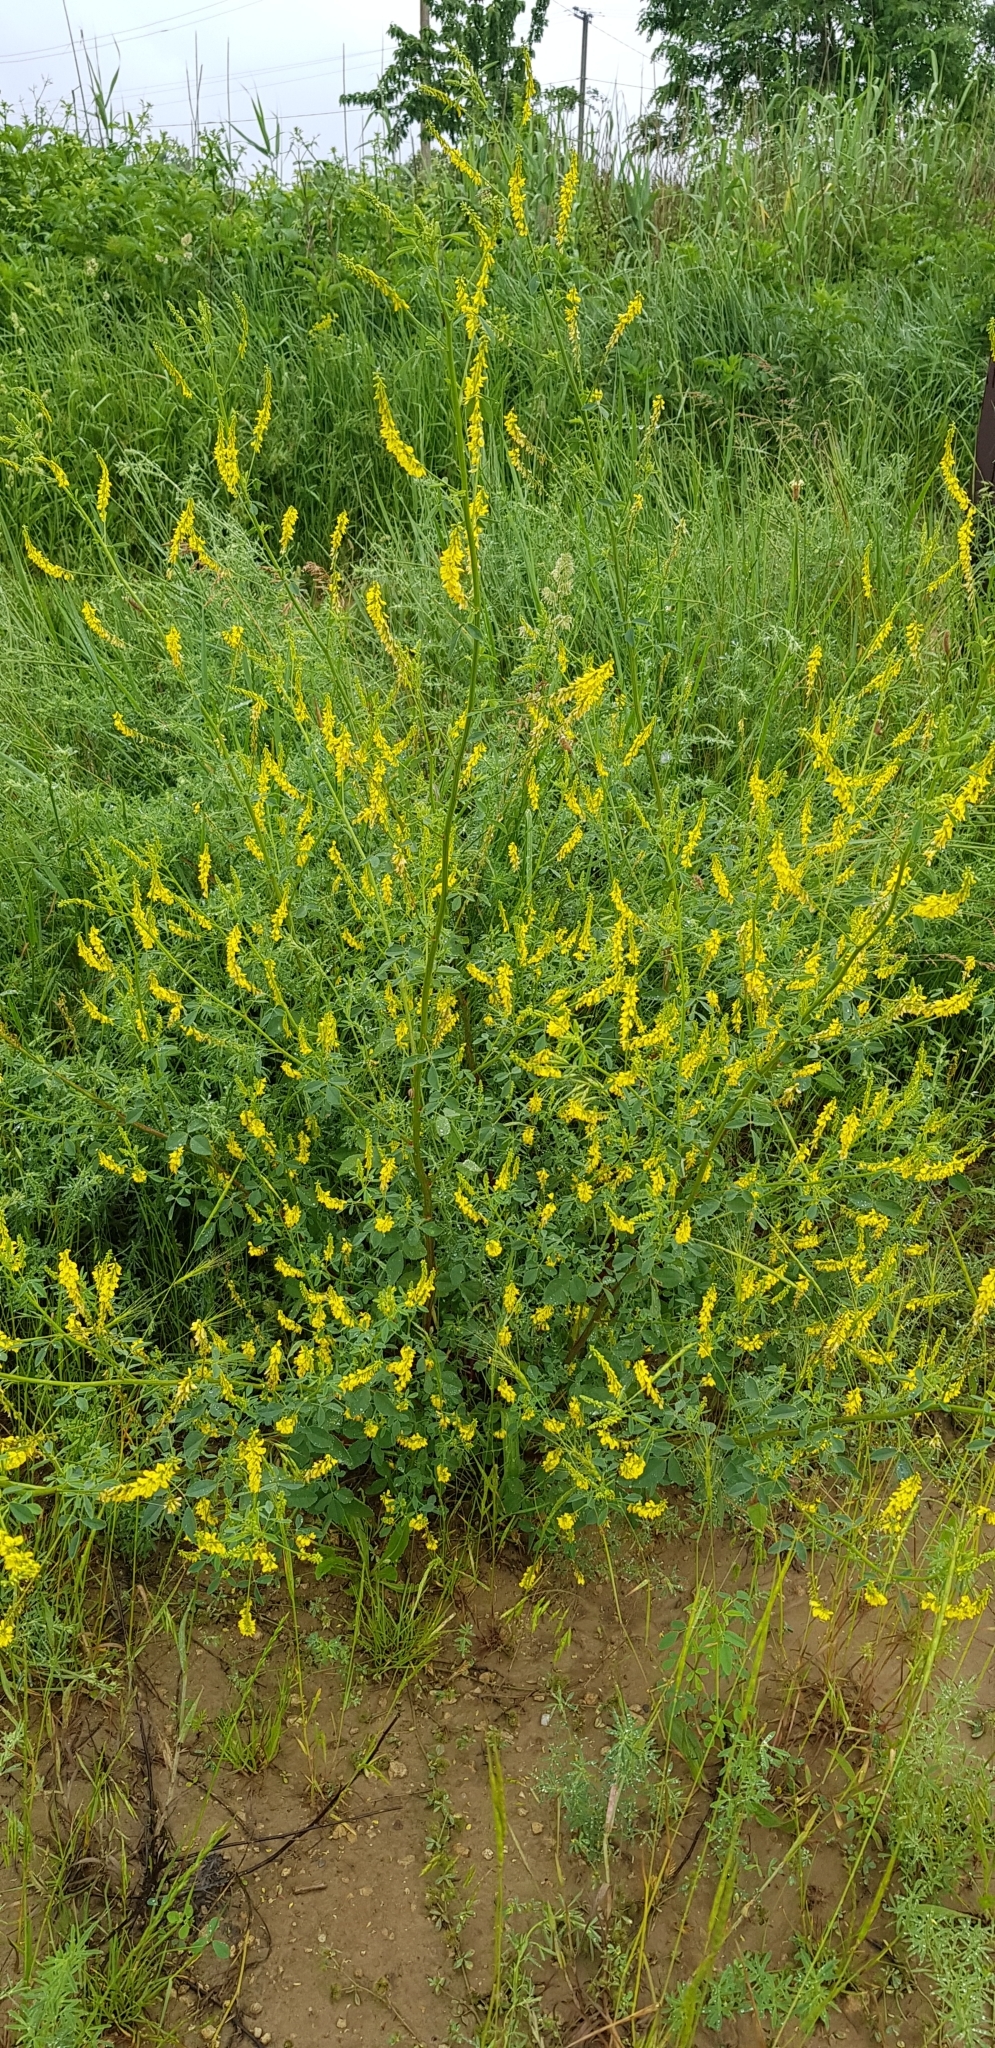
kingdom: Plantae
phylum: Tracheophyta
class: Magnoliopsida
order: Fabales
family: Fabaceae
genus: Melilotus
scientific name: Melilotus officinalis
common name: Sweetclover
